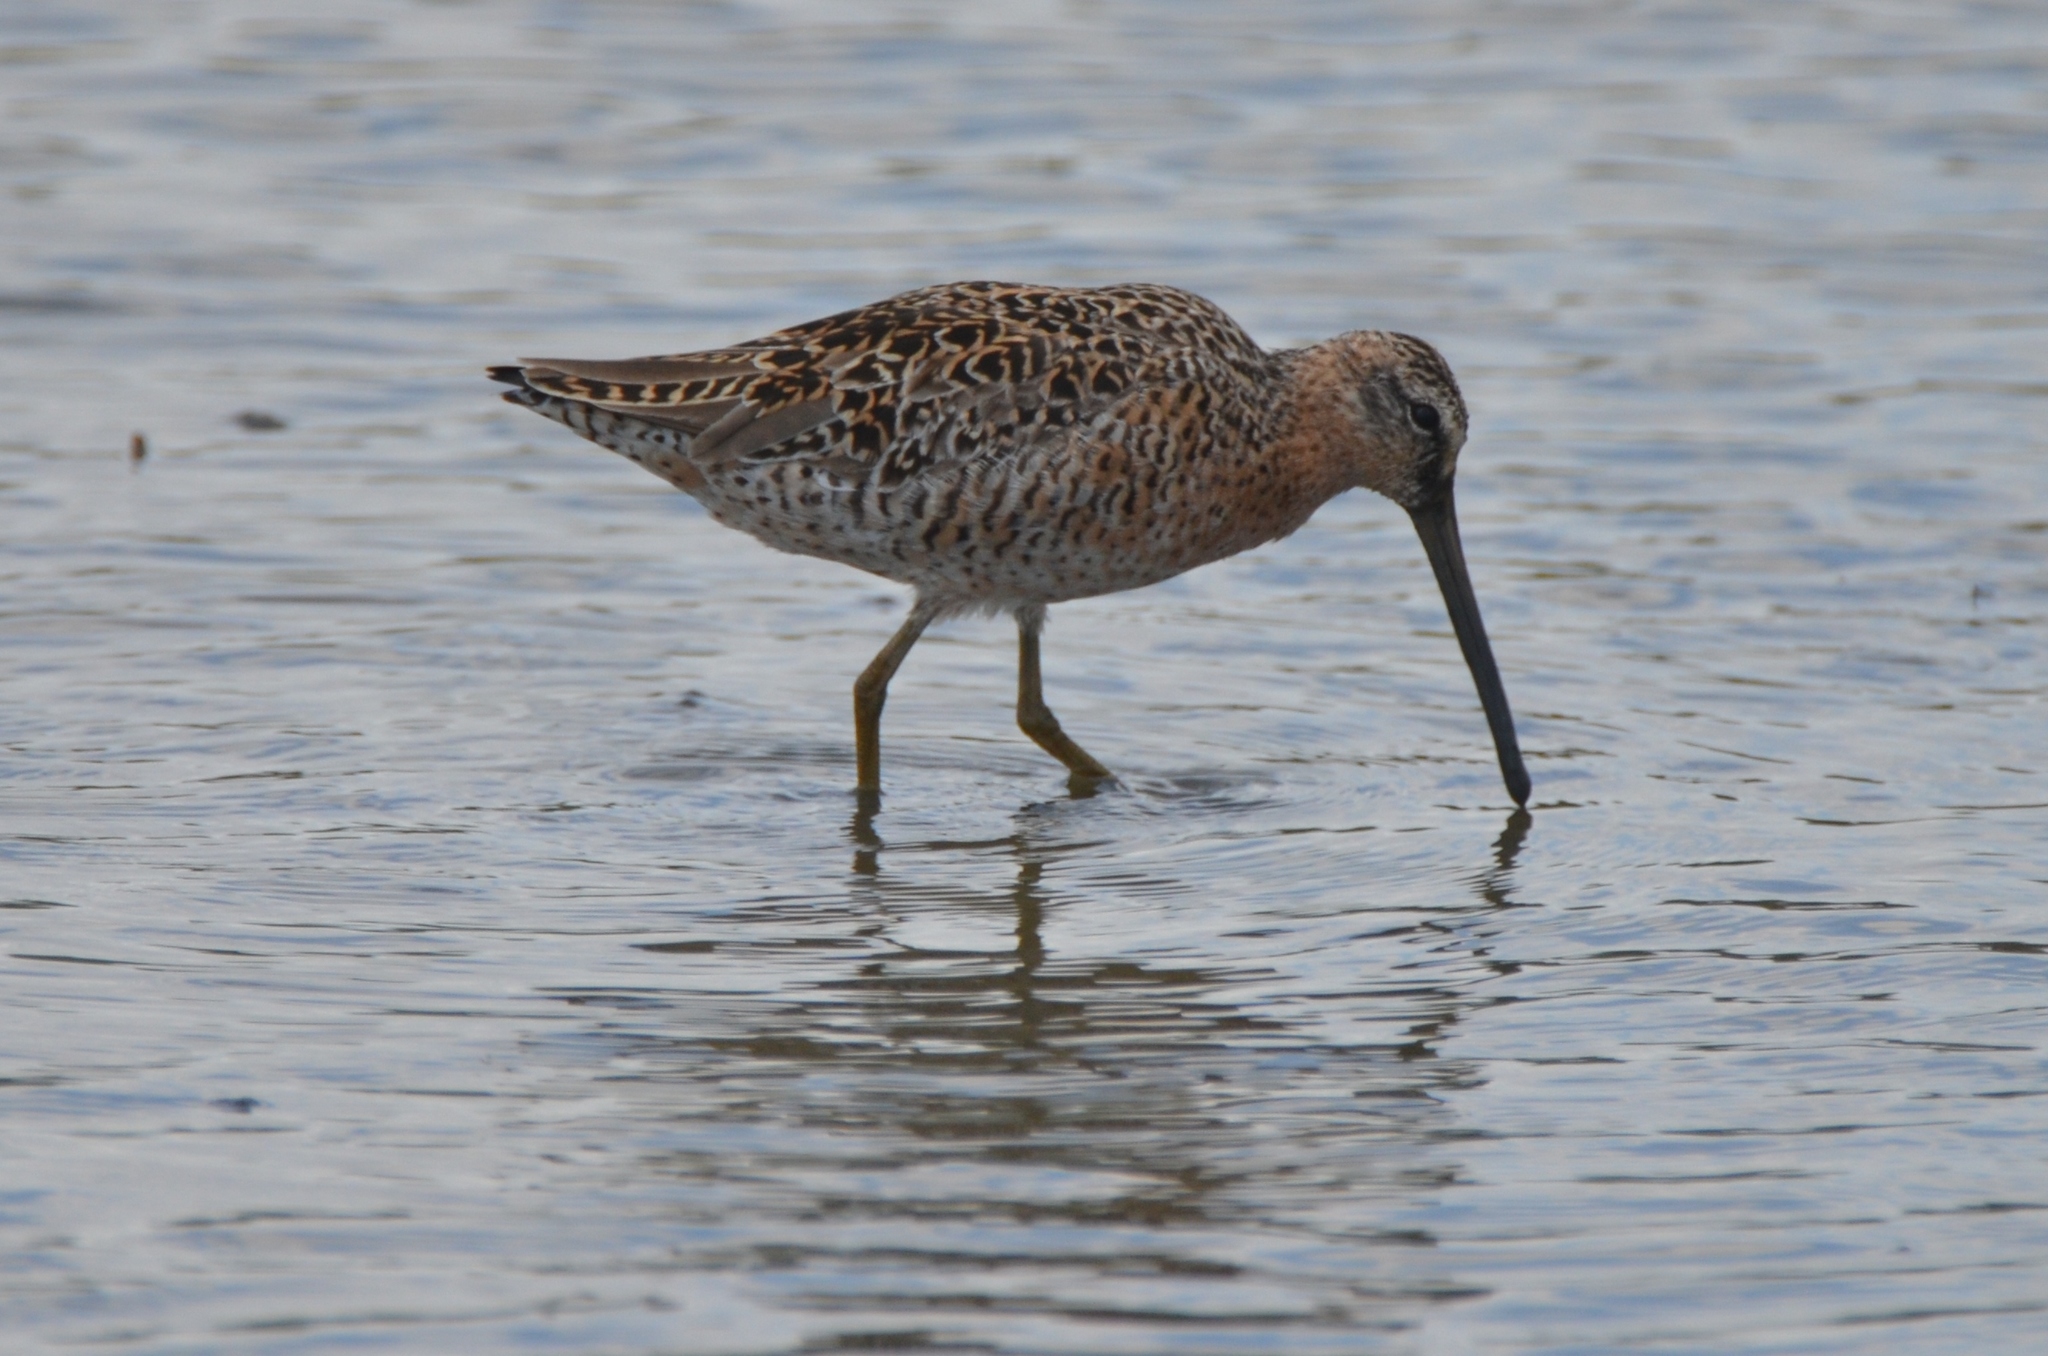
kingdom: Animalia
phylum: Chordata
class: Aves
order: Charadriiformes
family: Scolopacidae
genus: Limnodromus
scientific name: Limnodromus griseus
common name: Short-billed dowitcher
